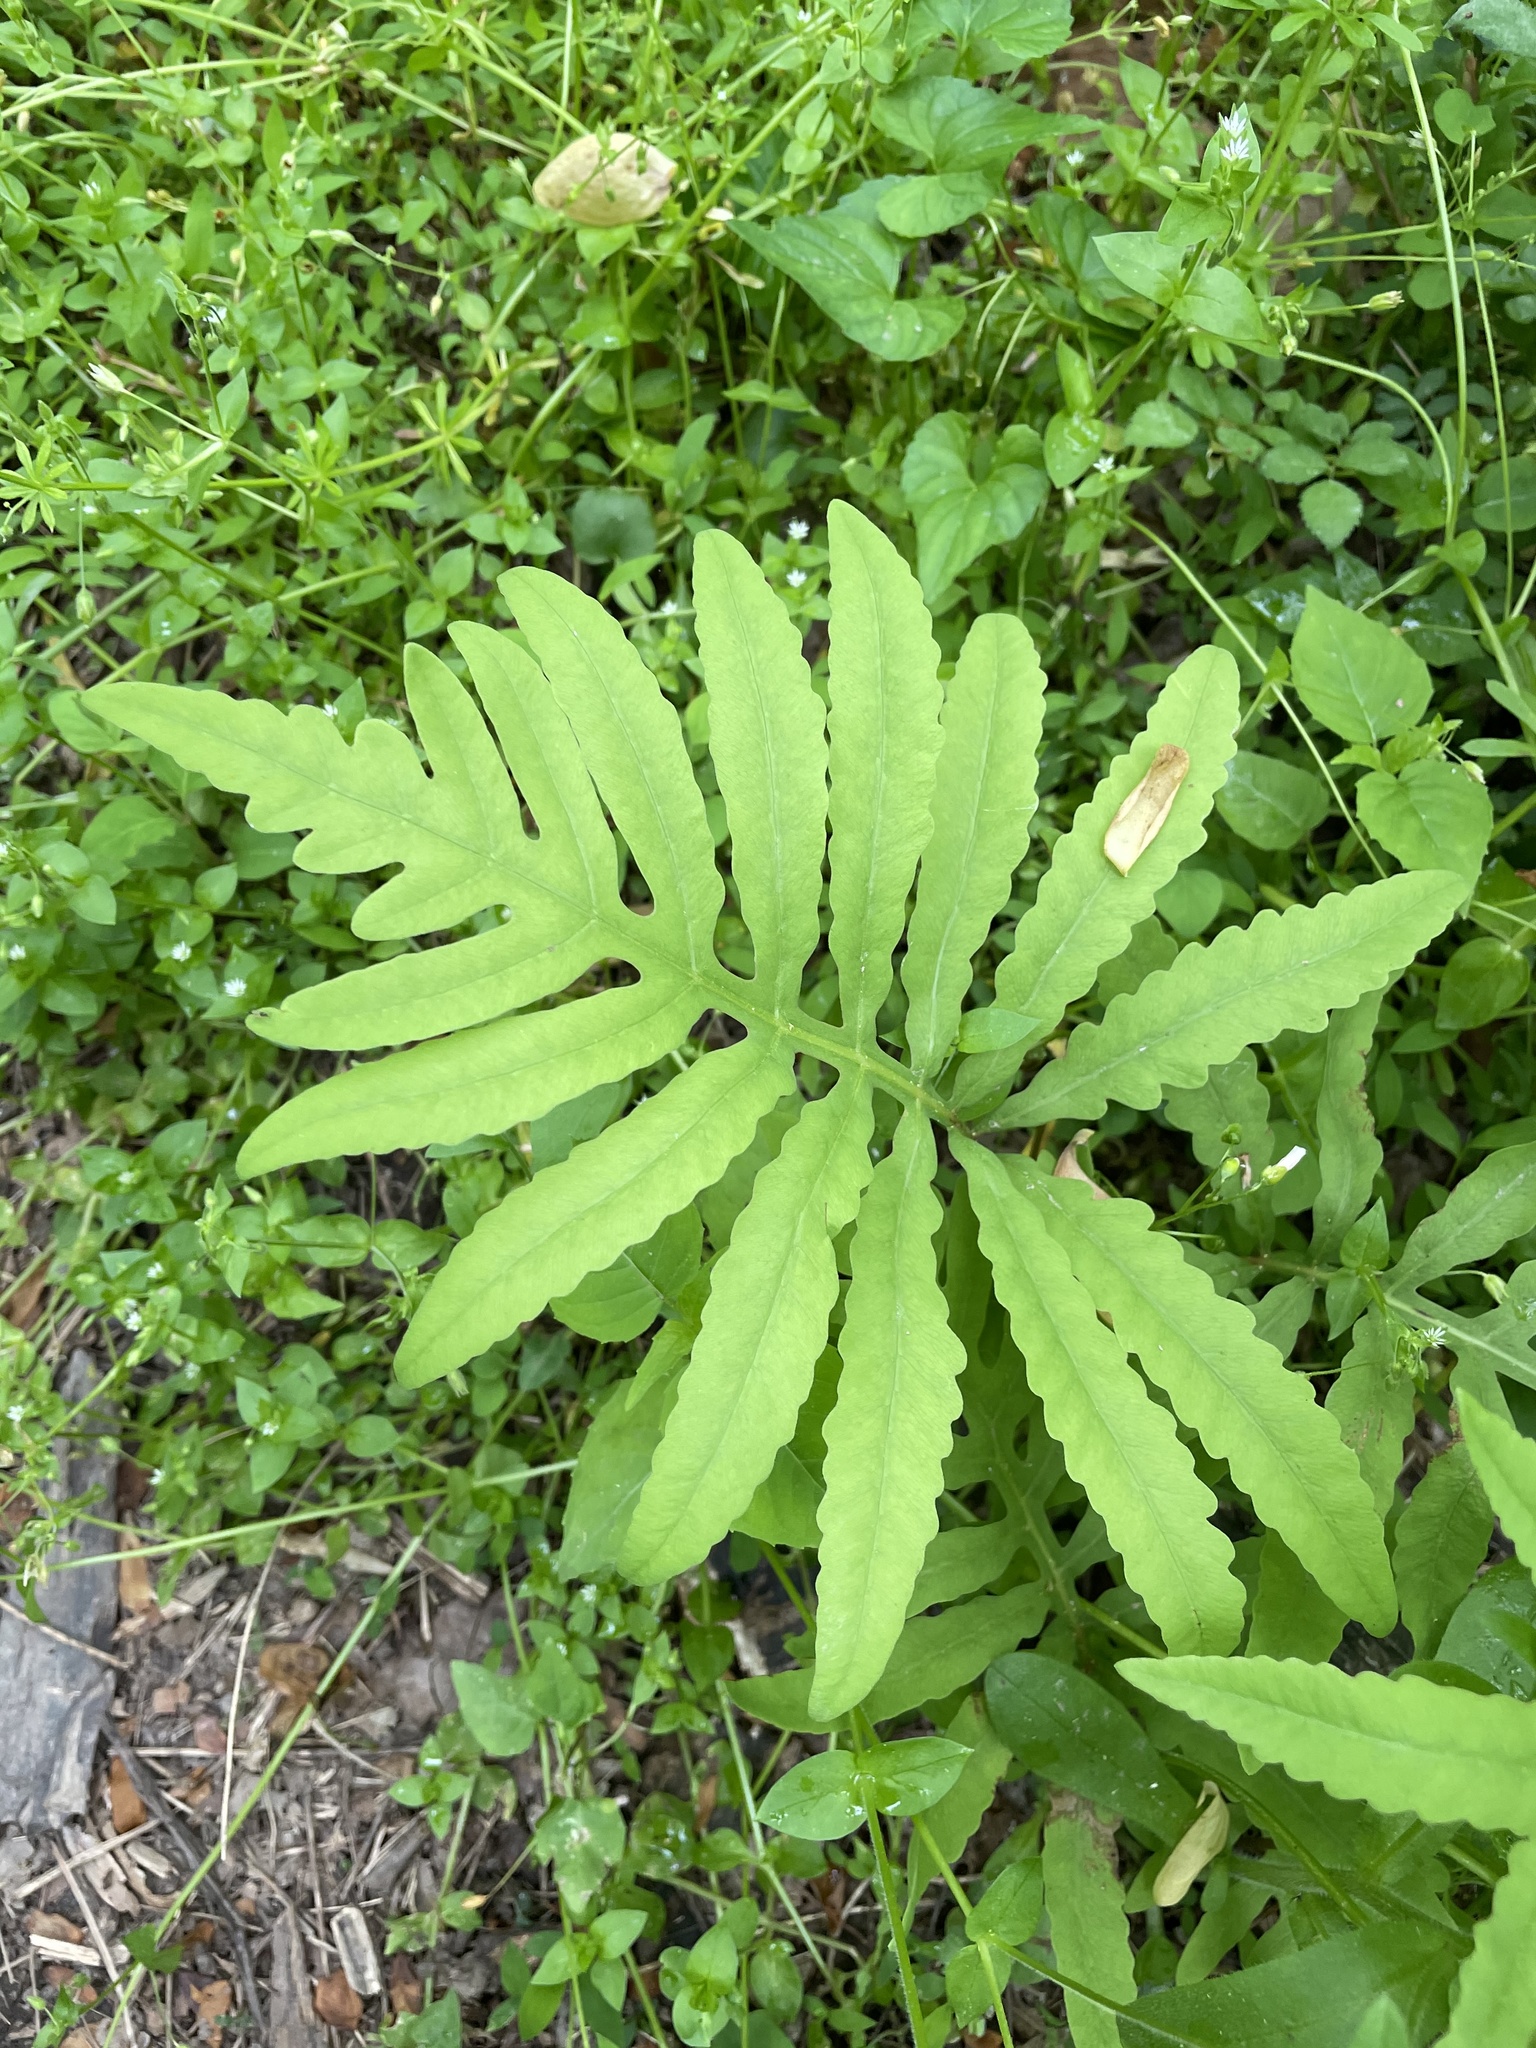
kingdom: Plantae
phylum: Tracheophyta
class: Polypodiopsida
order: Polypodiales
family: Onocleaceae
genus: Onoclea
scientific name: Onoclea sensibilis
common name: Sensitive fern
